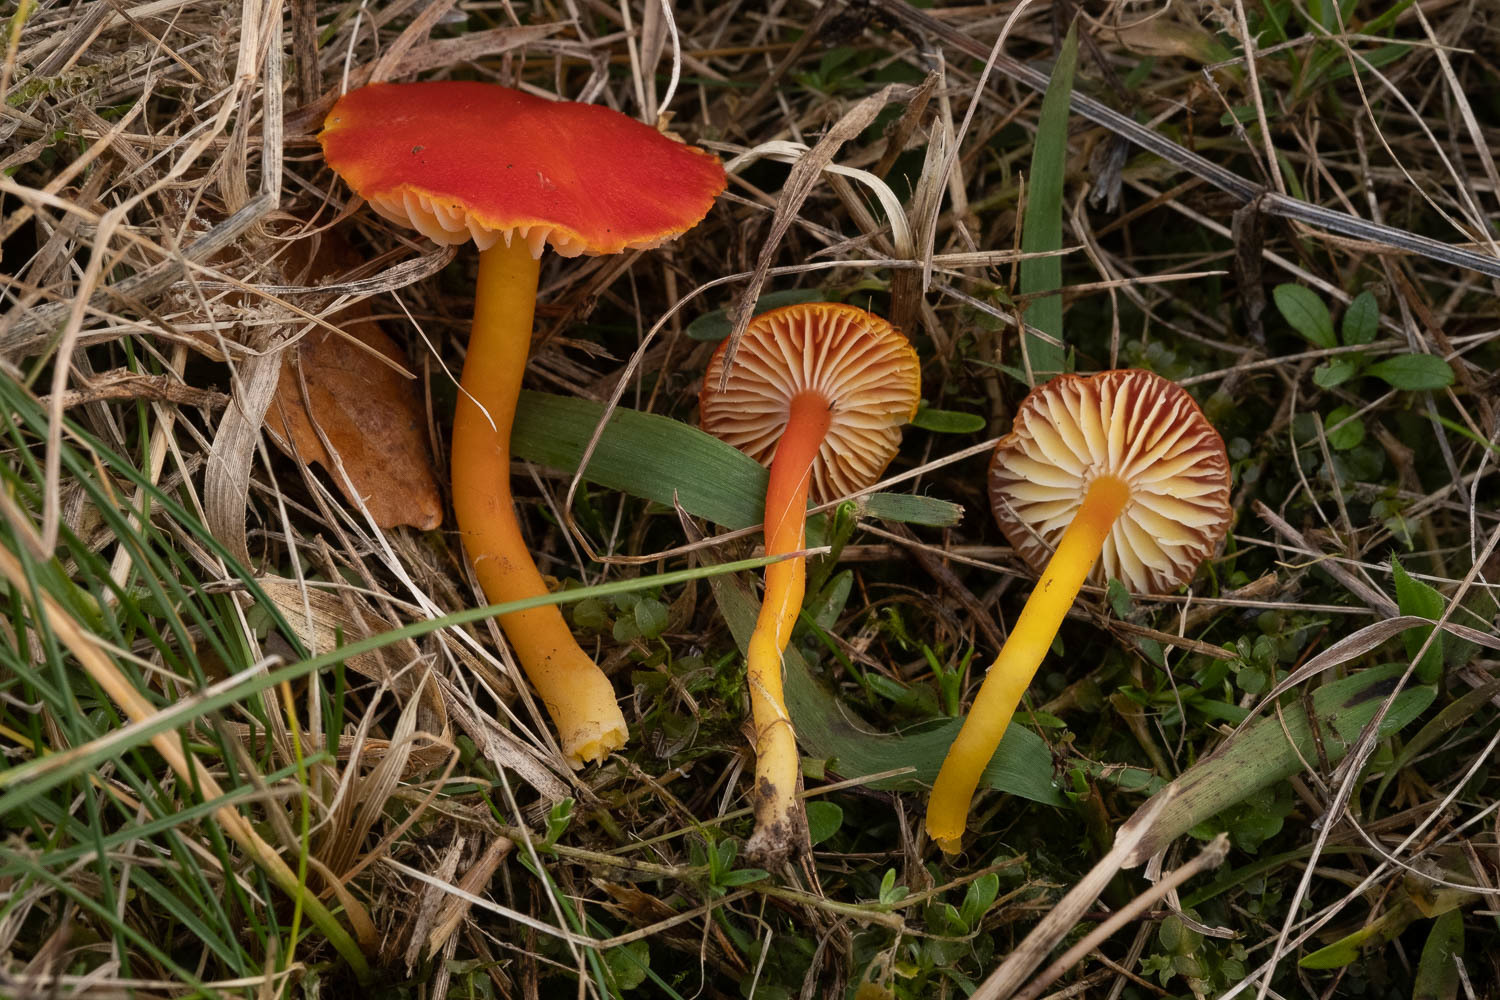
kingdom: Fungi
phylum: Basidiomycota
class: Agaricomycetes
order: Agaricales
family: Hygrophoraceae
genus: Hygrocybe
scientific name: Hygrocybe coccinea
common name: Scarlet hood
